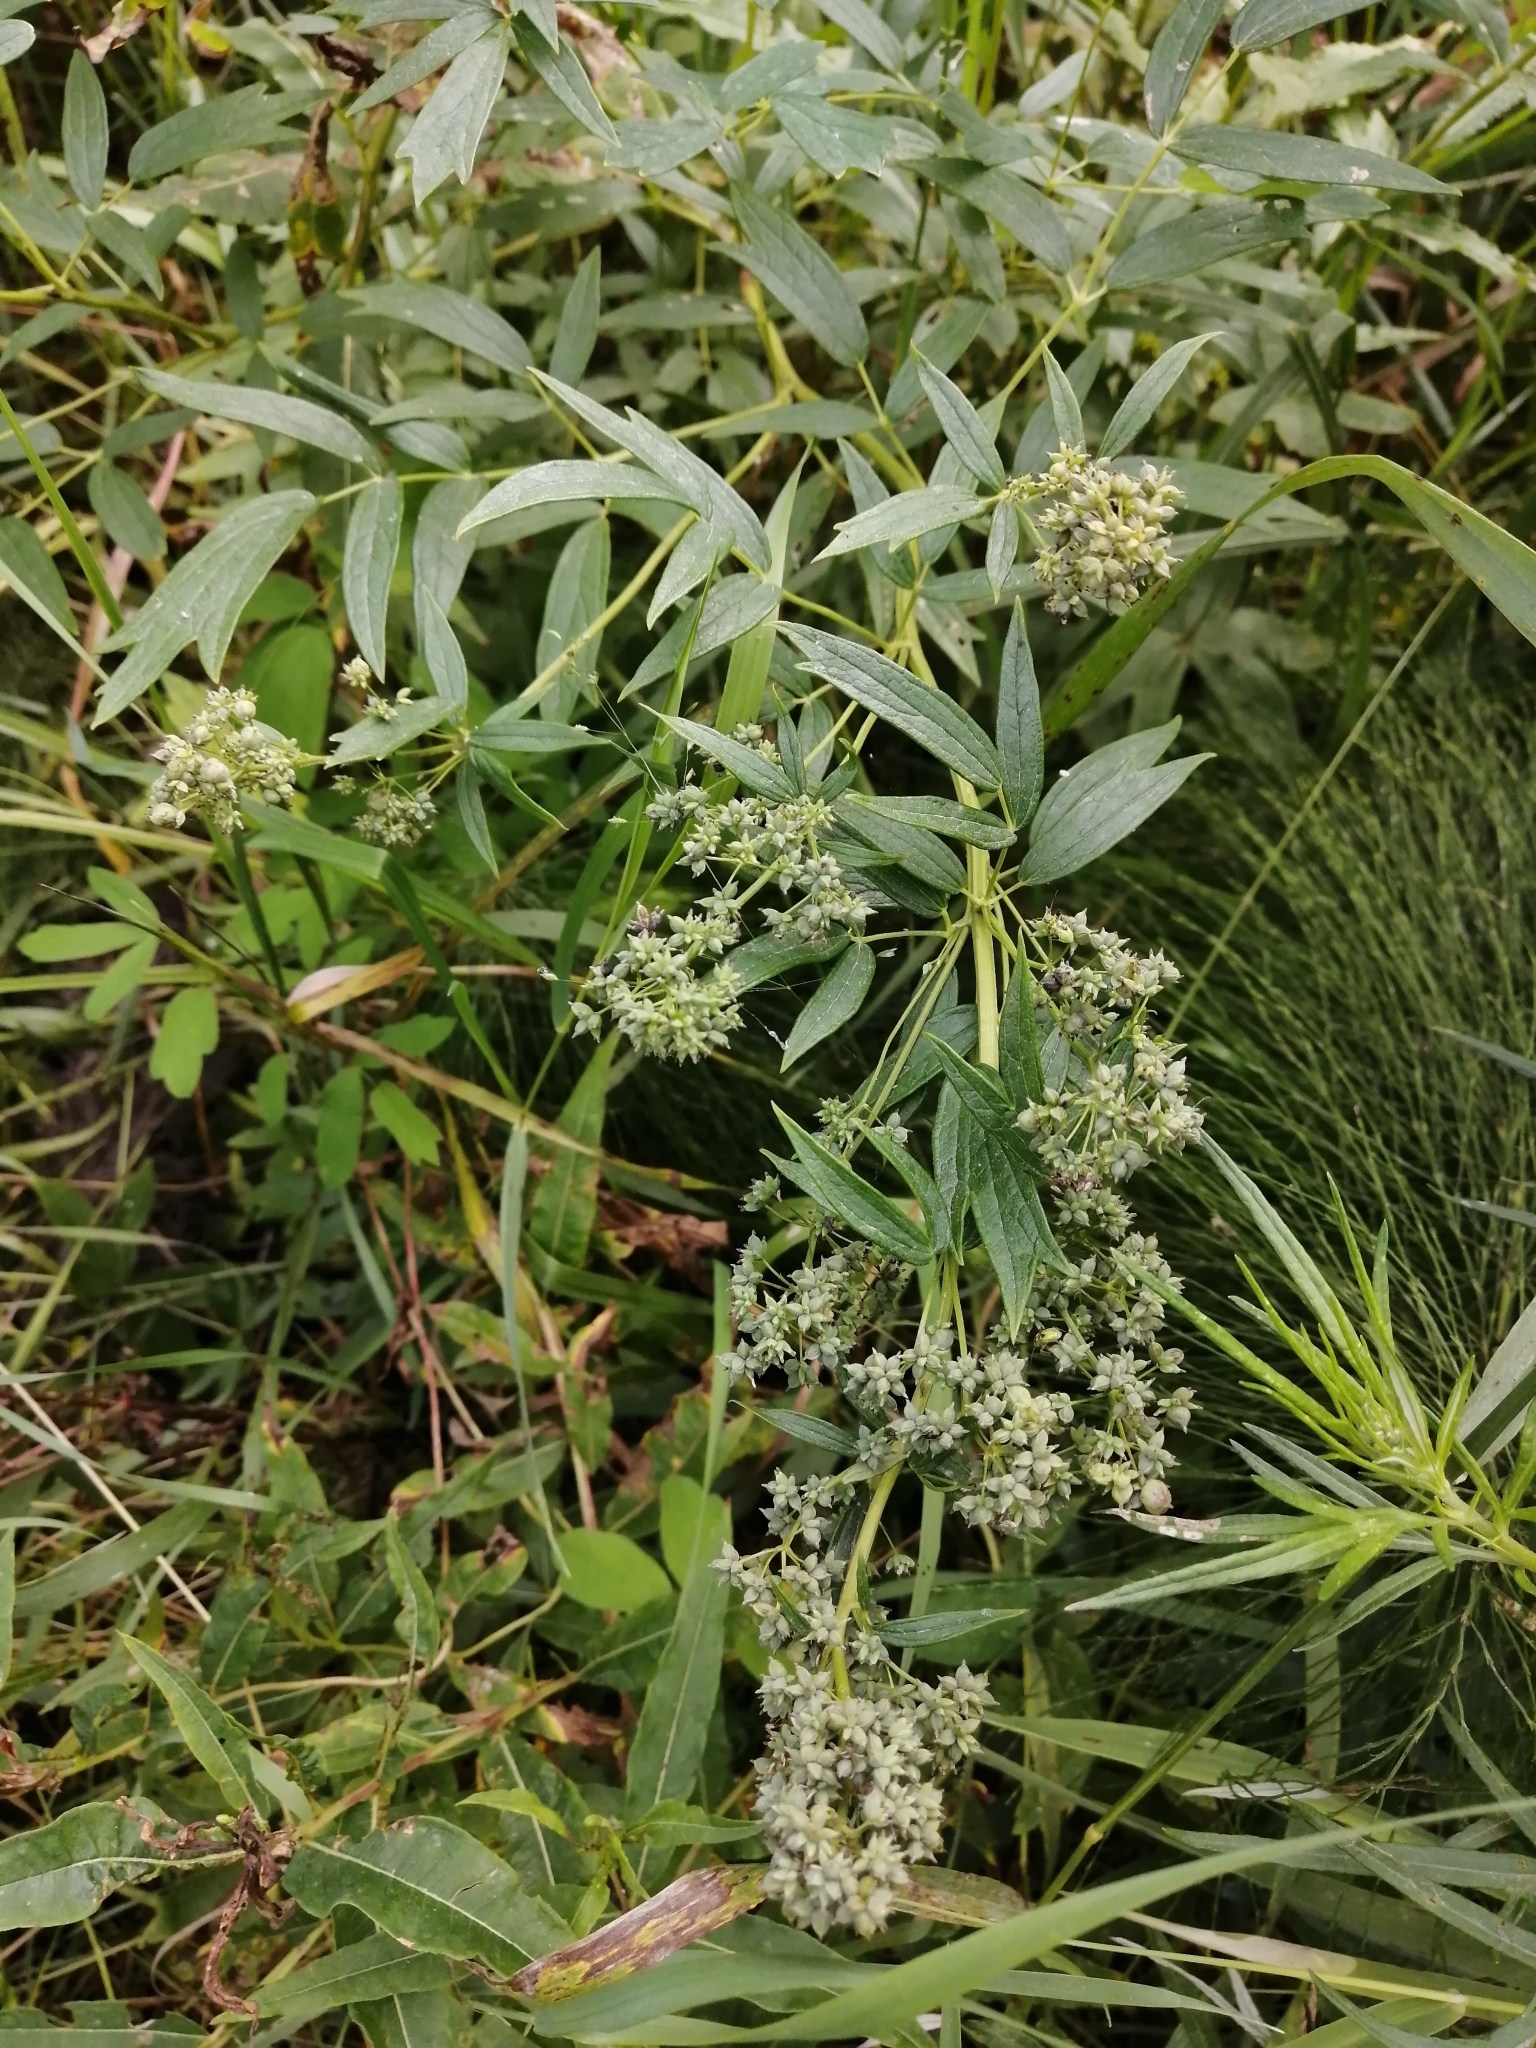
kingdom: Plantae
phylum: Tracheophyta
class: Magnoliopsida
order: Ranunculales
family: Ranunculaceae
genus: Thalictrum
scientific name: Thalictrum simplex
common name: Small meadow-rue
